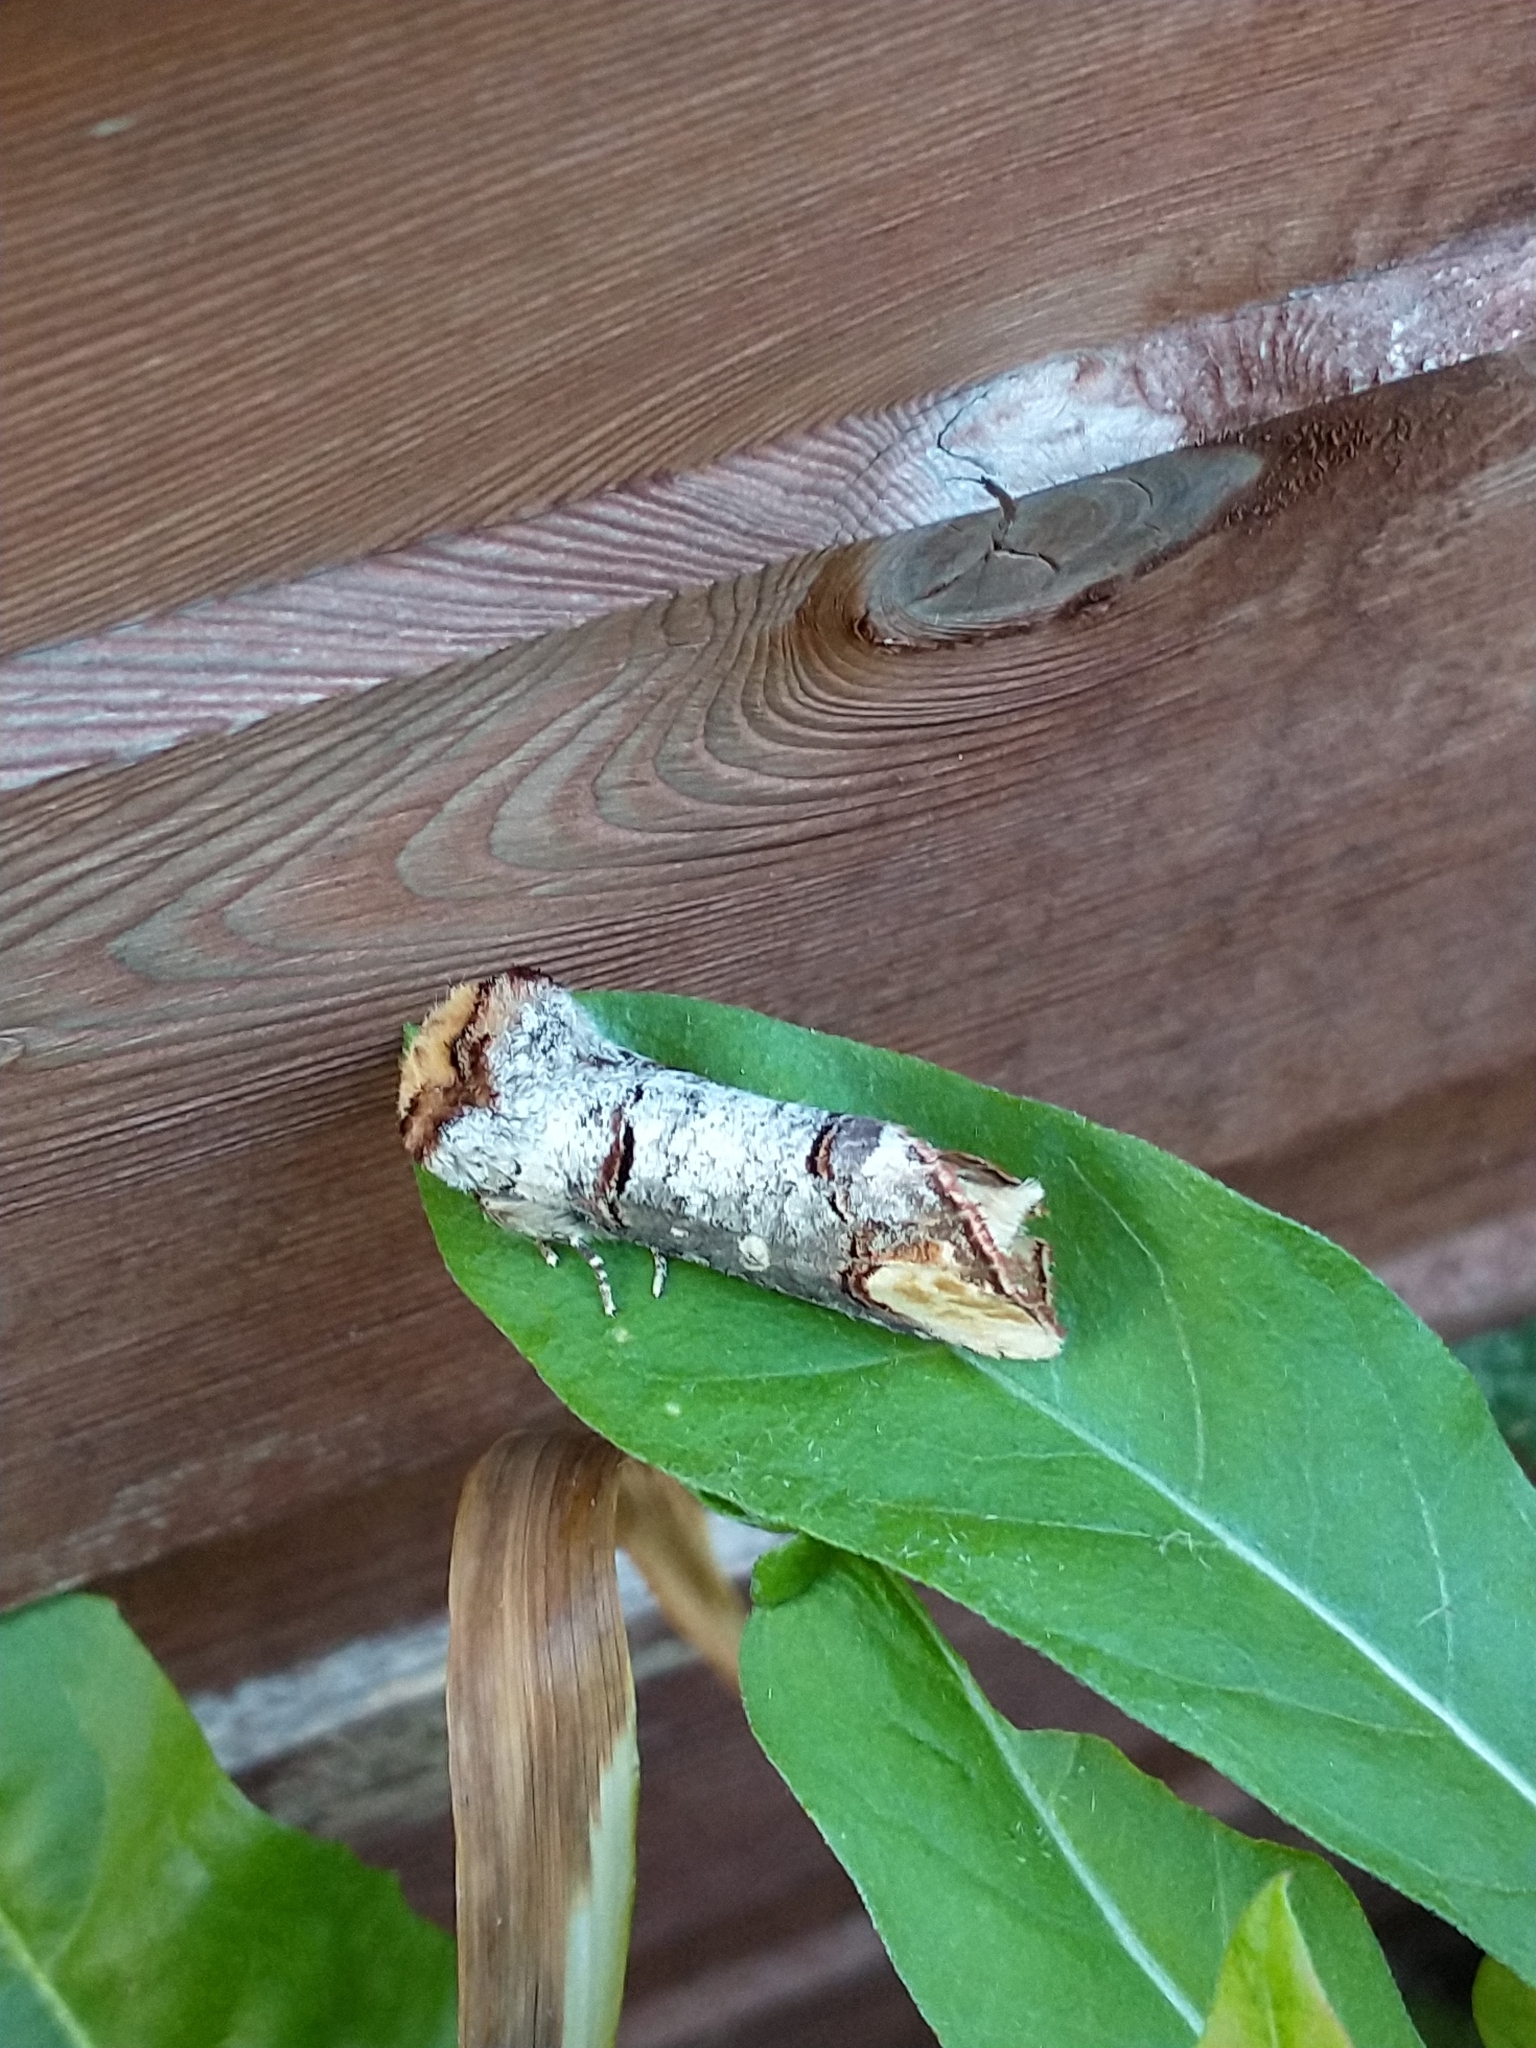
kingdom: Animalia
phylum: Arthropoda
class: Insecta
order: Lepidoptera
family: Notodontidae
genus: Phalera
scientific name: Phalera bucephala
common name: Buff-tip
